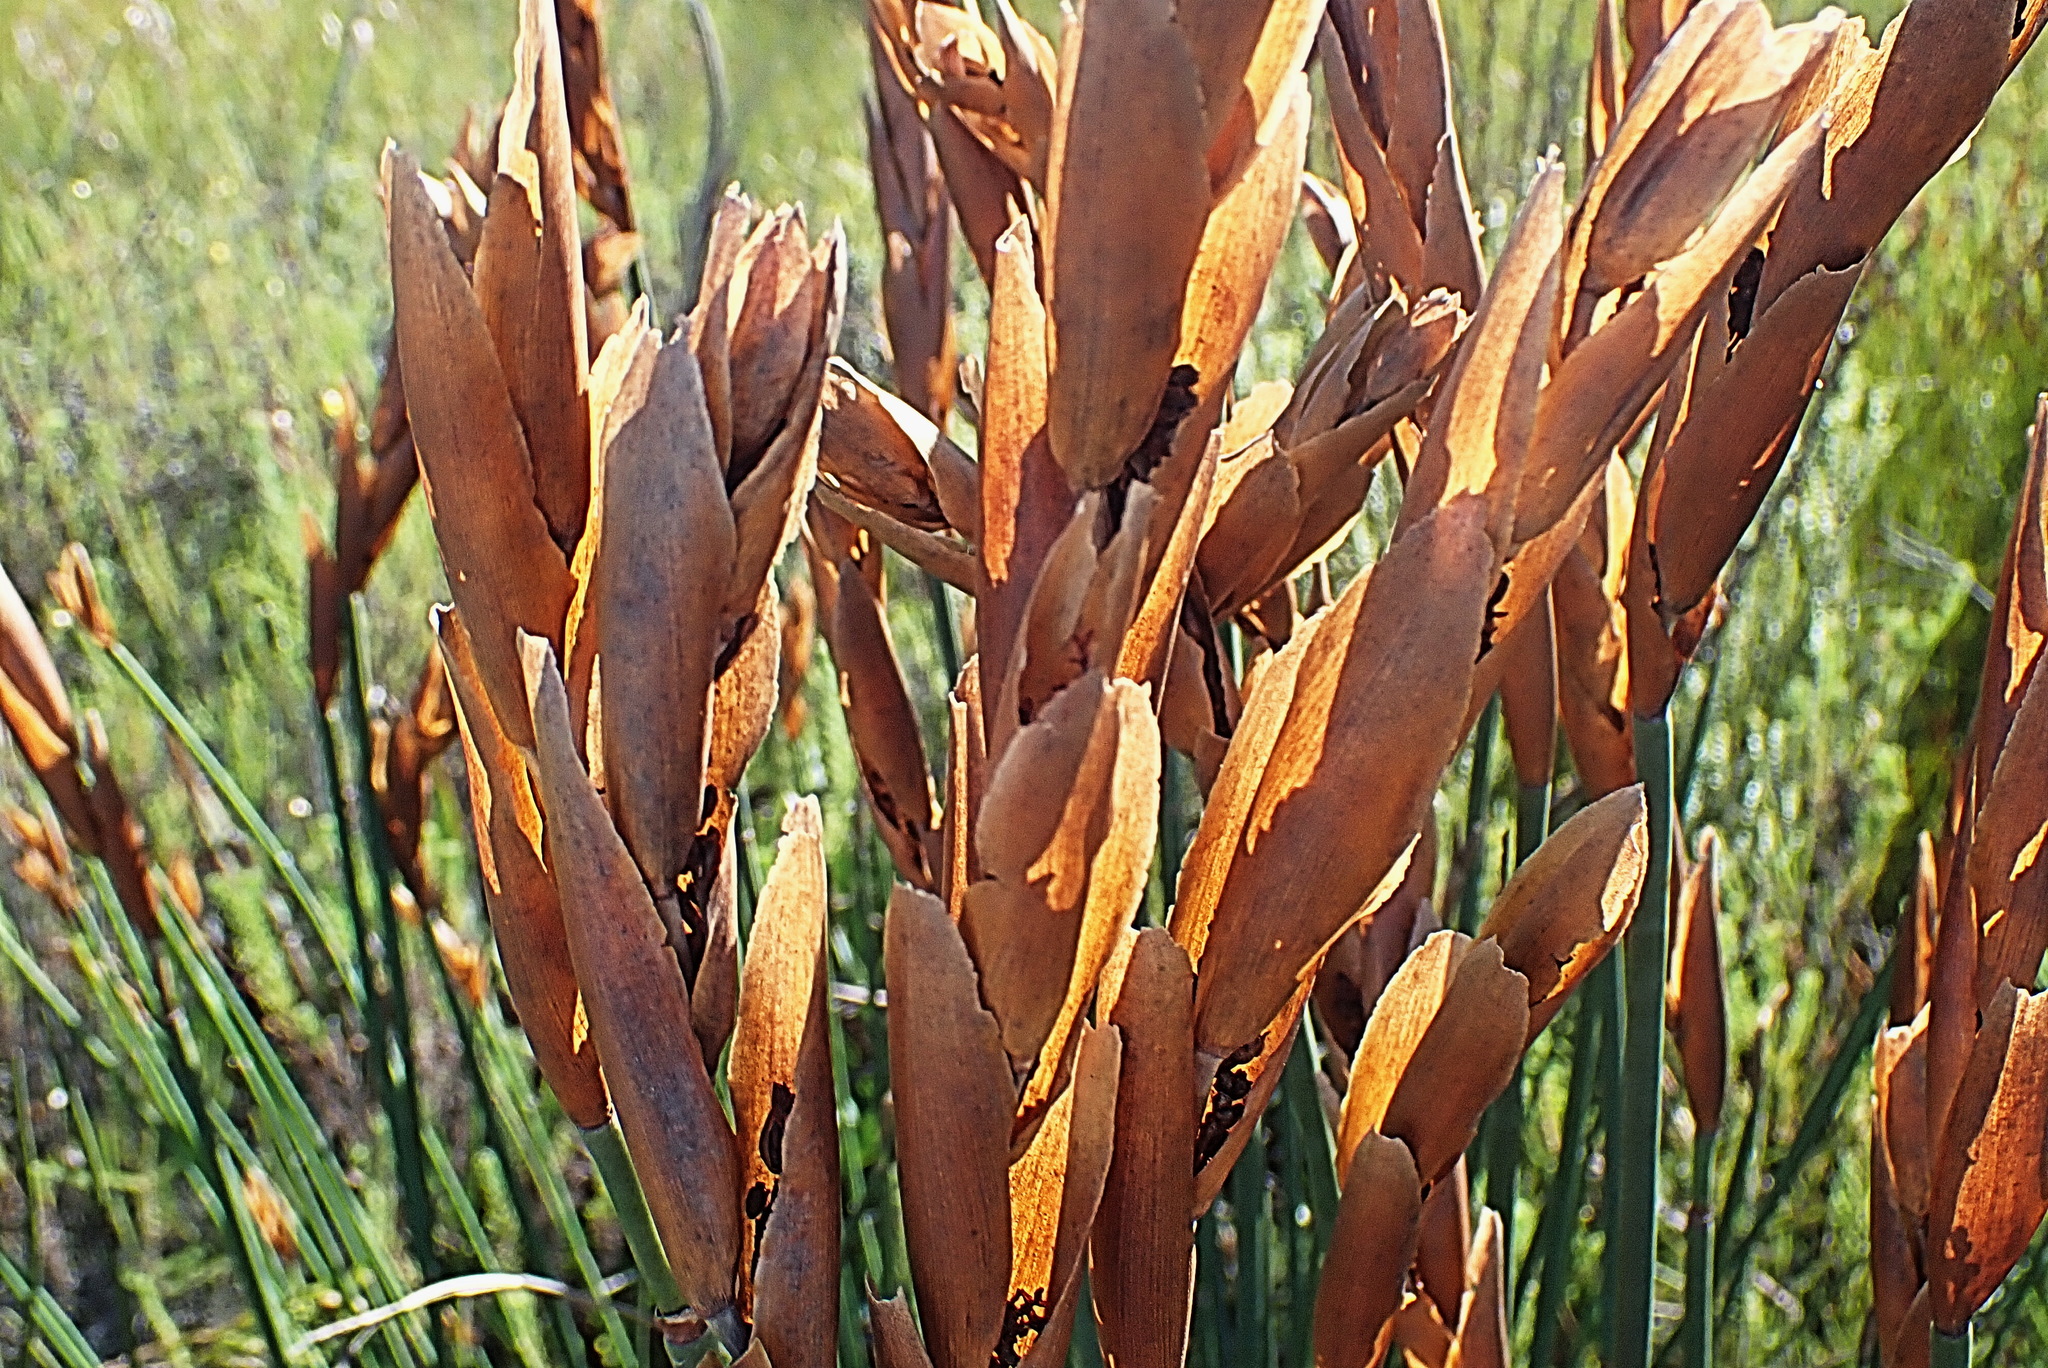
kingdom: Plantae
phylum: Tracheophyta
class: Liliopsida
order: Poales
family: Restionaceae
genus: Elegia
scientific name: Elegia thyrsoidea
